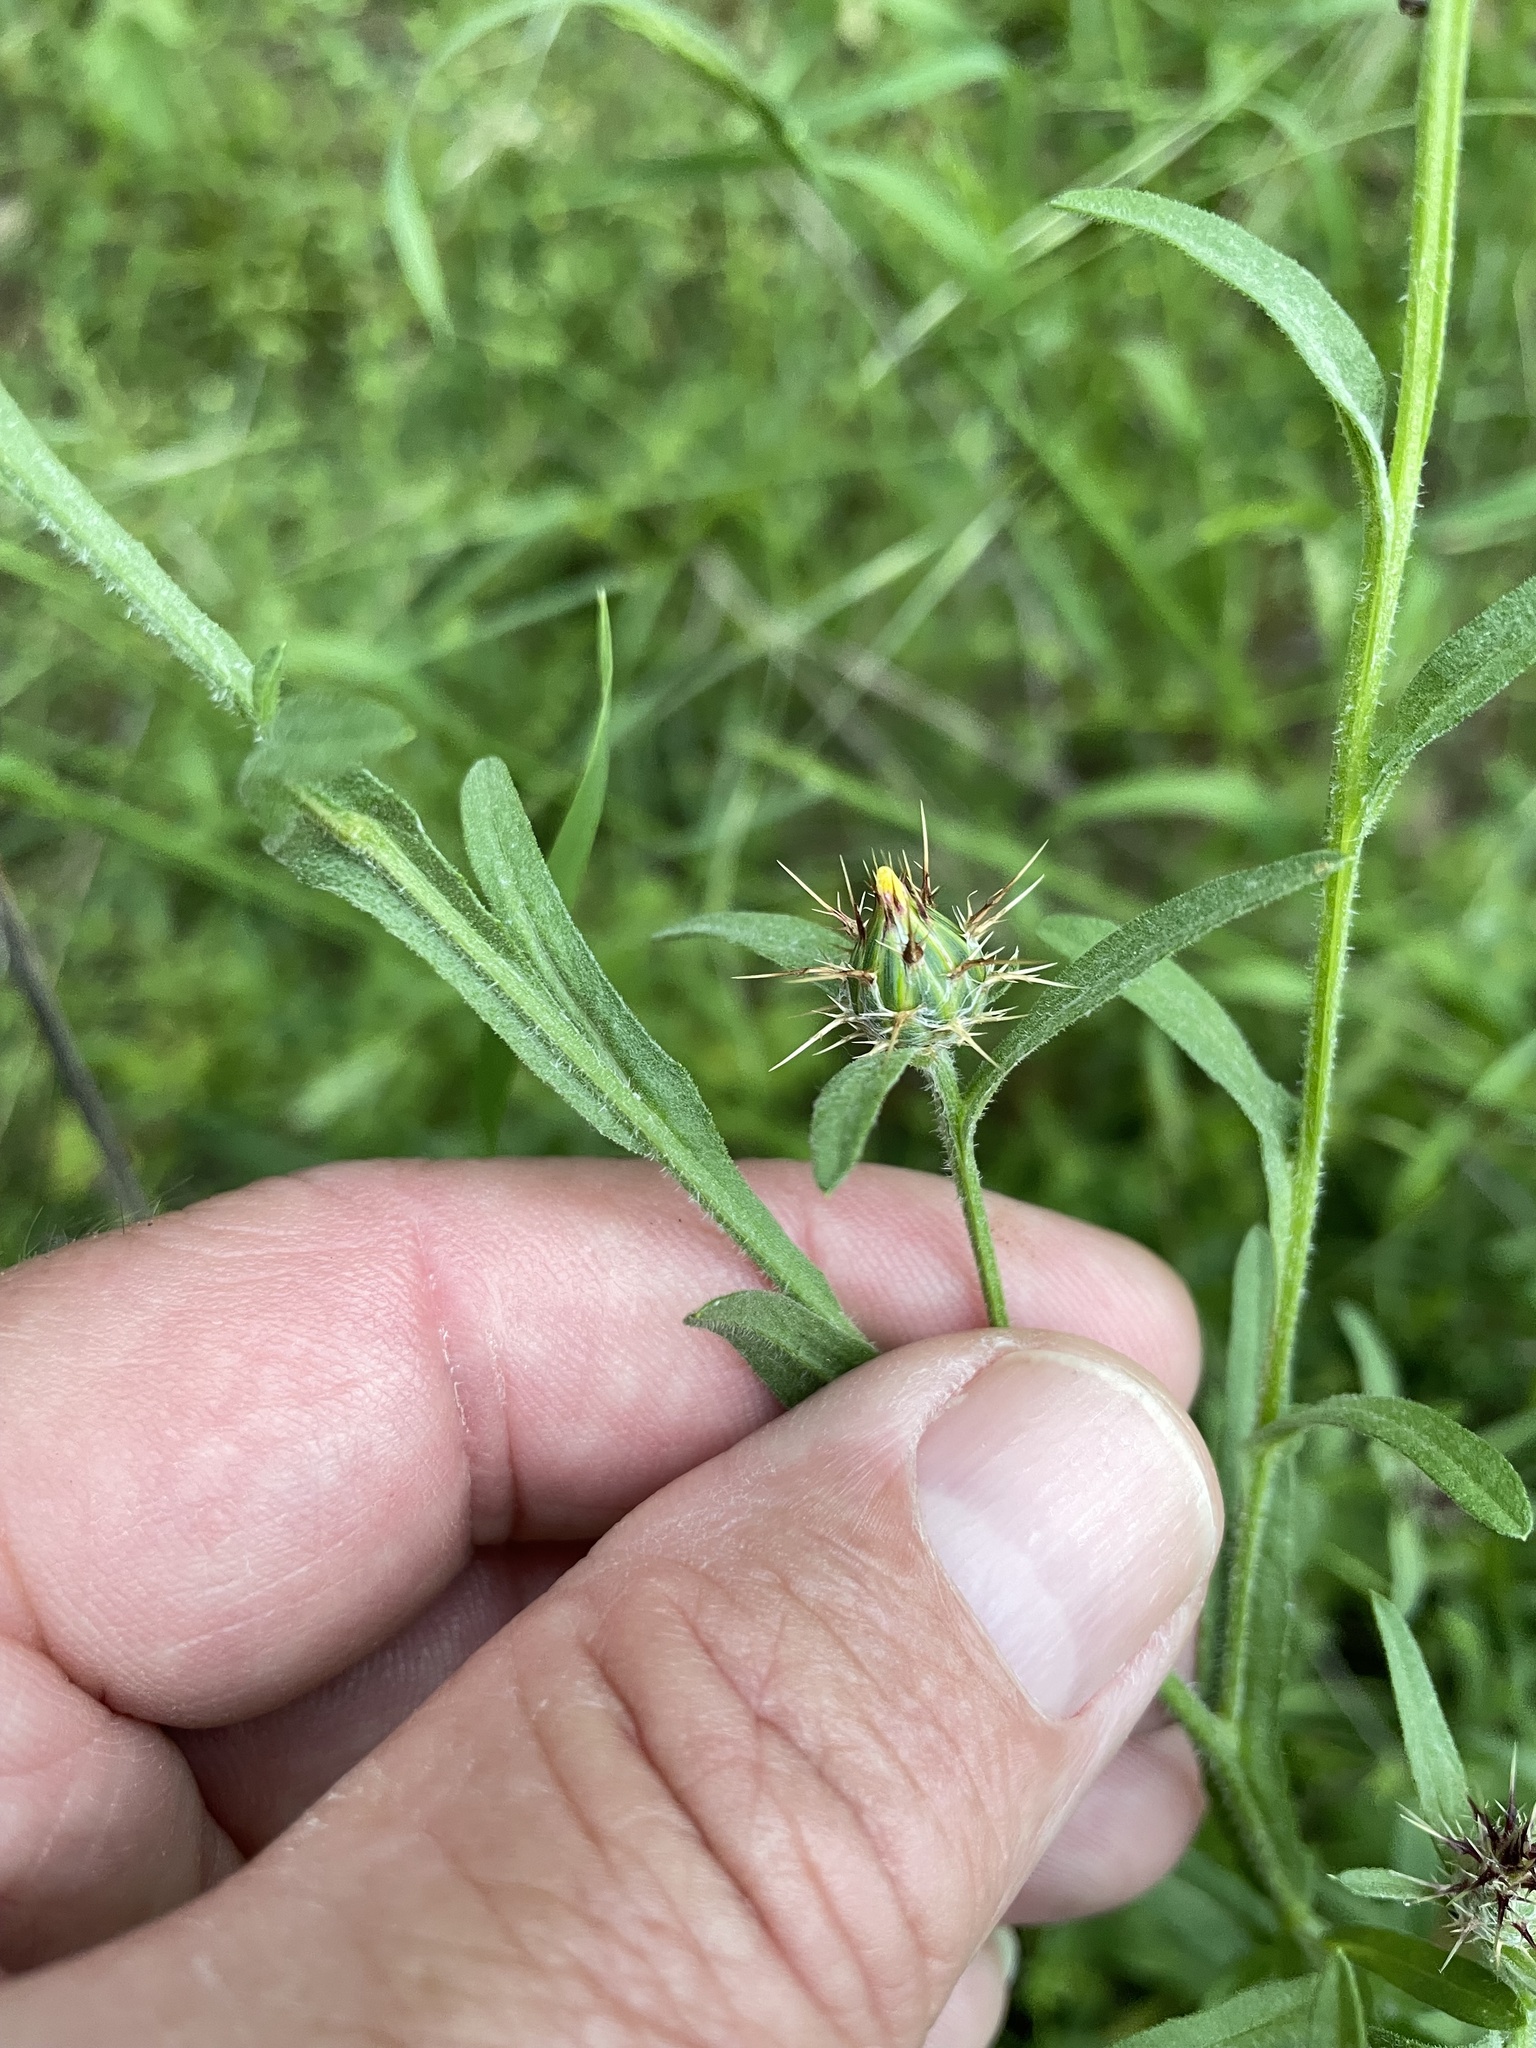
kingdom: Plantae
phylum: Tracheophyta
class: Magnoliopsida
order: Asterales
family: Asteraceae
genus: Centaurea
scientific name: Centaurea melitensis
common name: Maltese star-thistle
